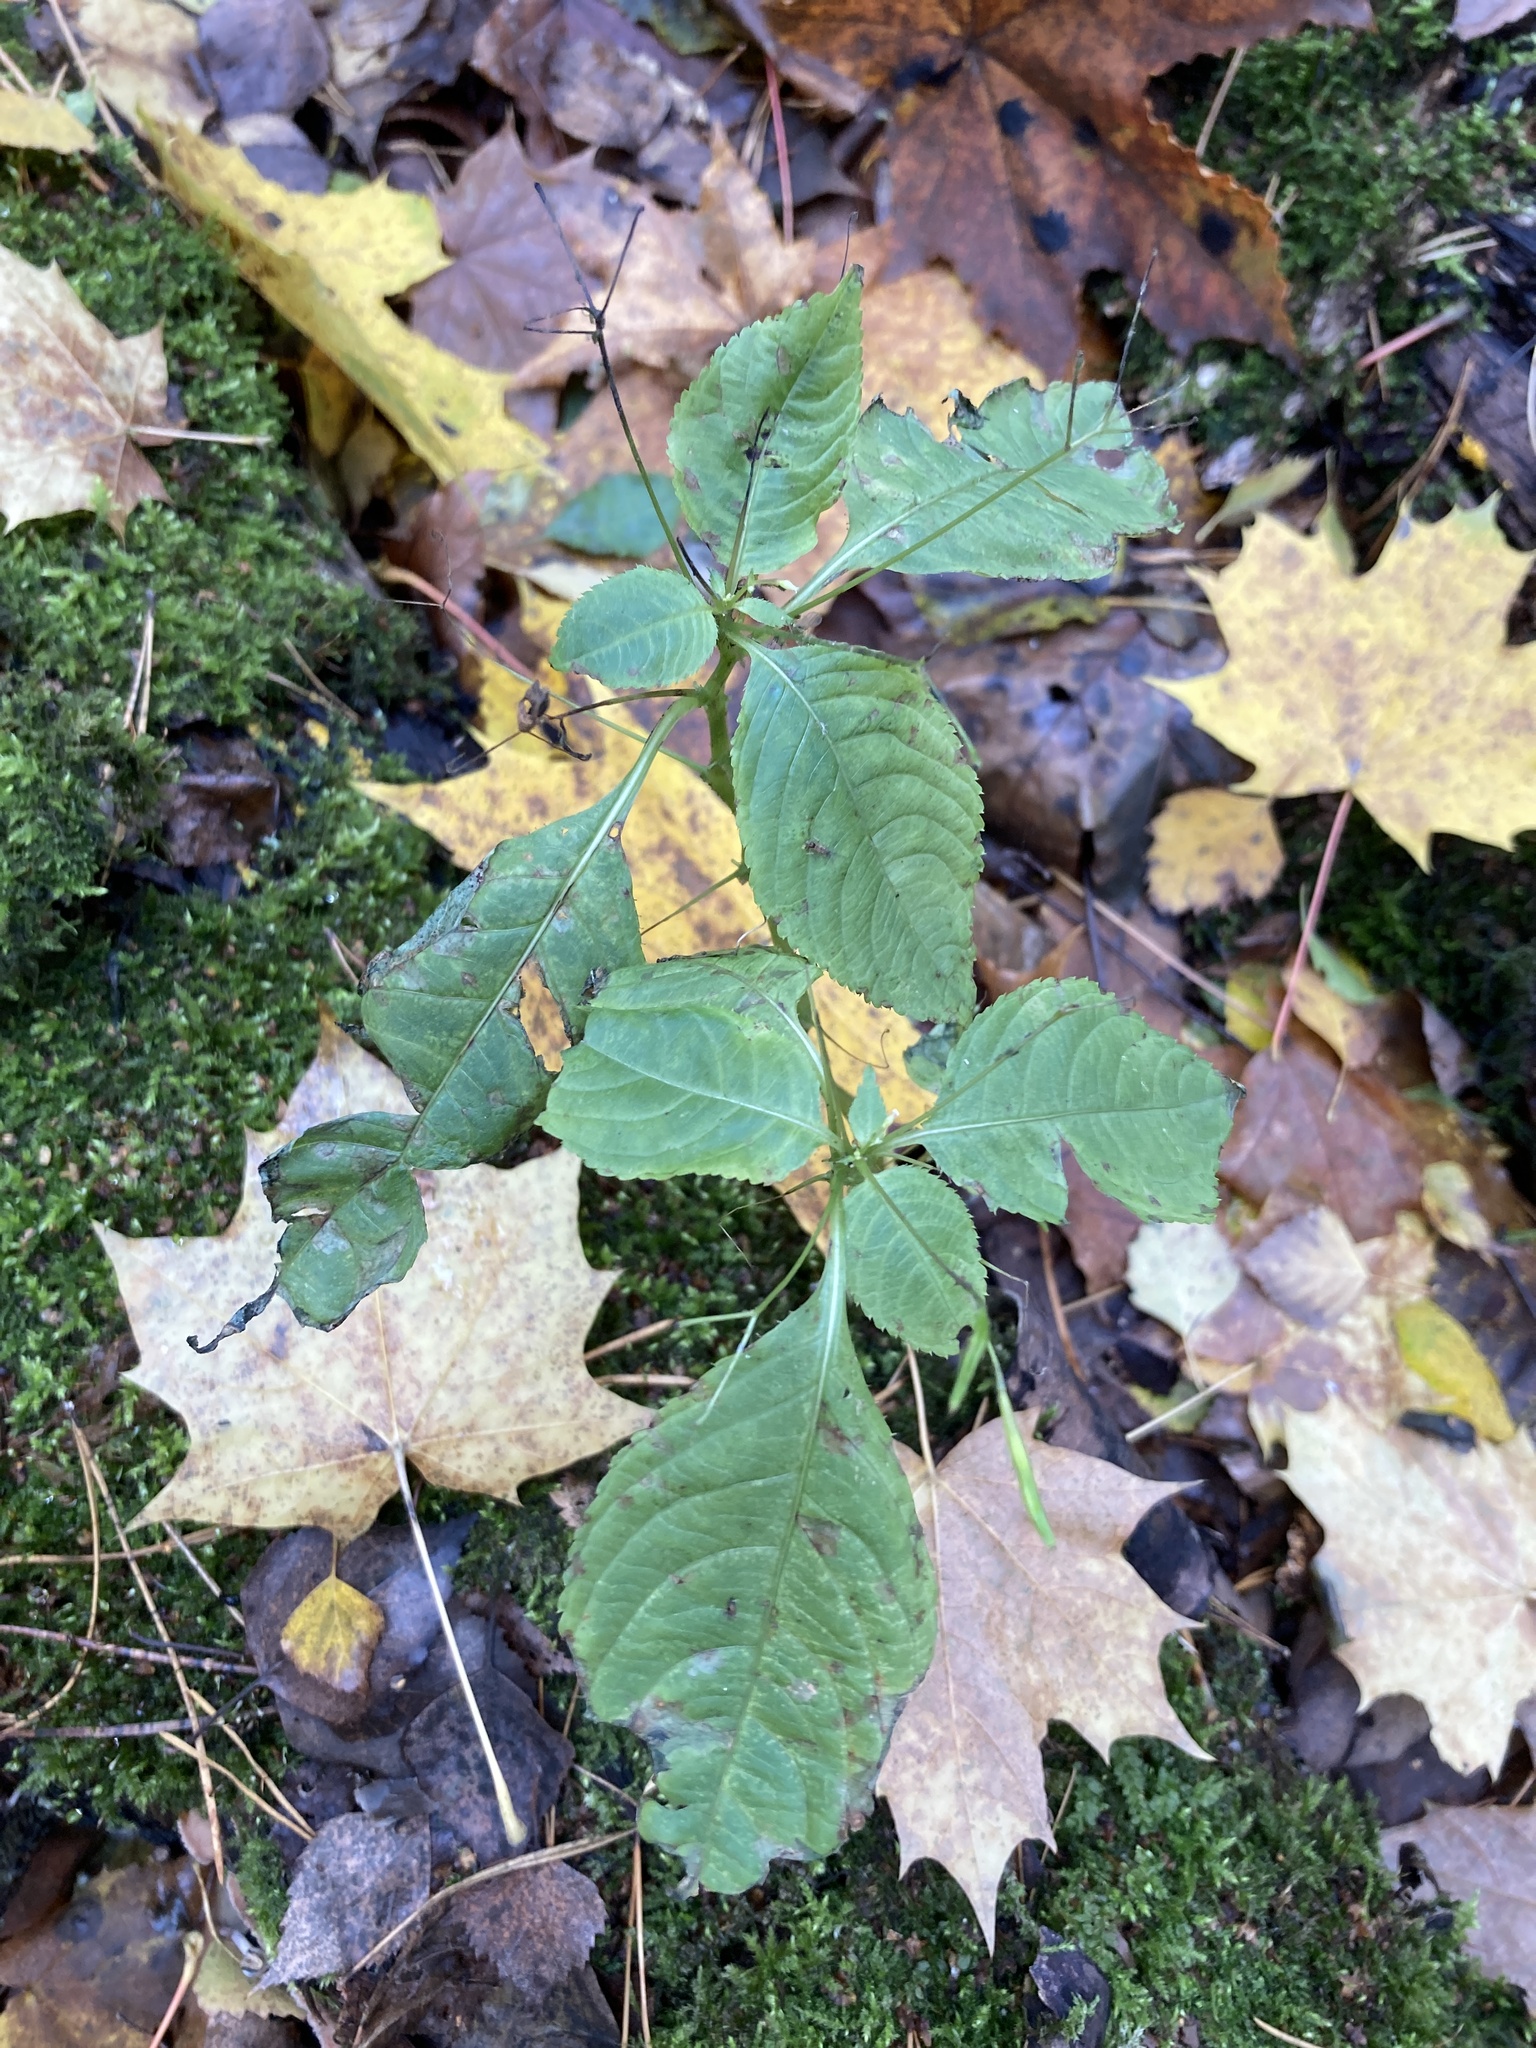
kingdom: Plantae
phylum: Tracheophyta
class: Magnoliopsida
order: Ericales
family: Balsaminaceae
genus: Impatiens
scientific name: Impatiens parviflora
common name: Small balsam
